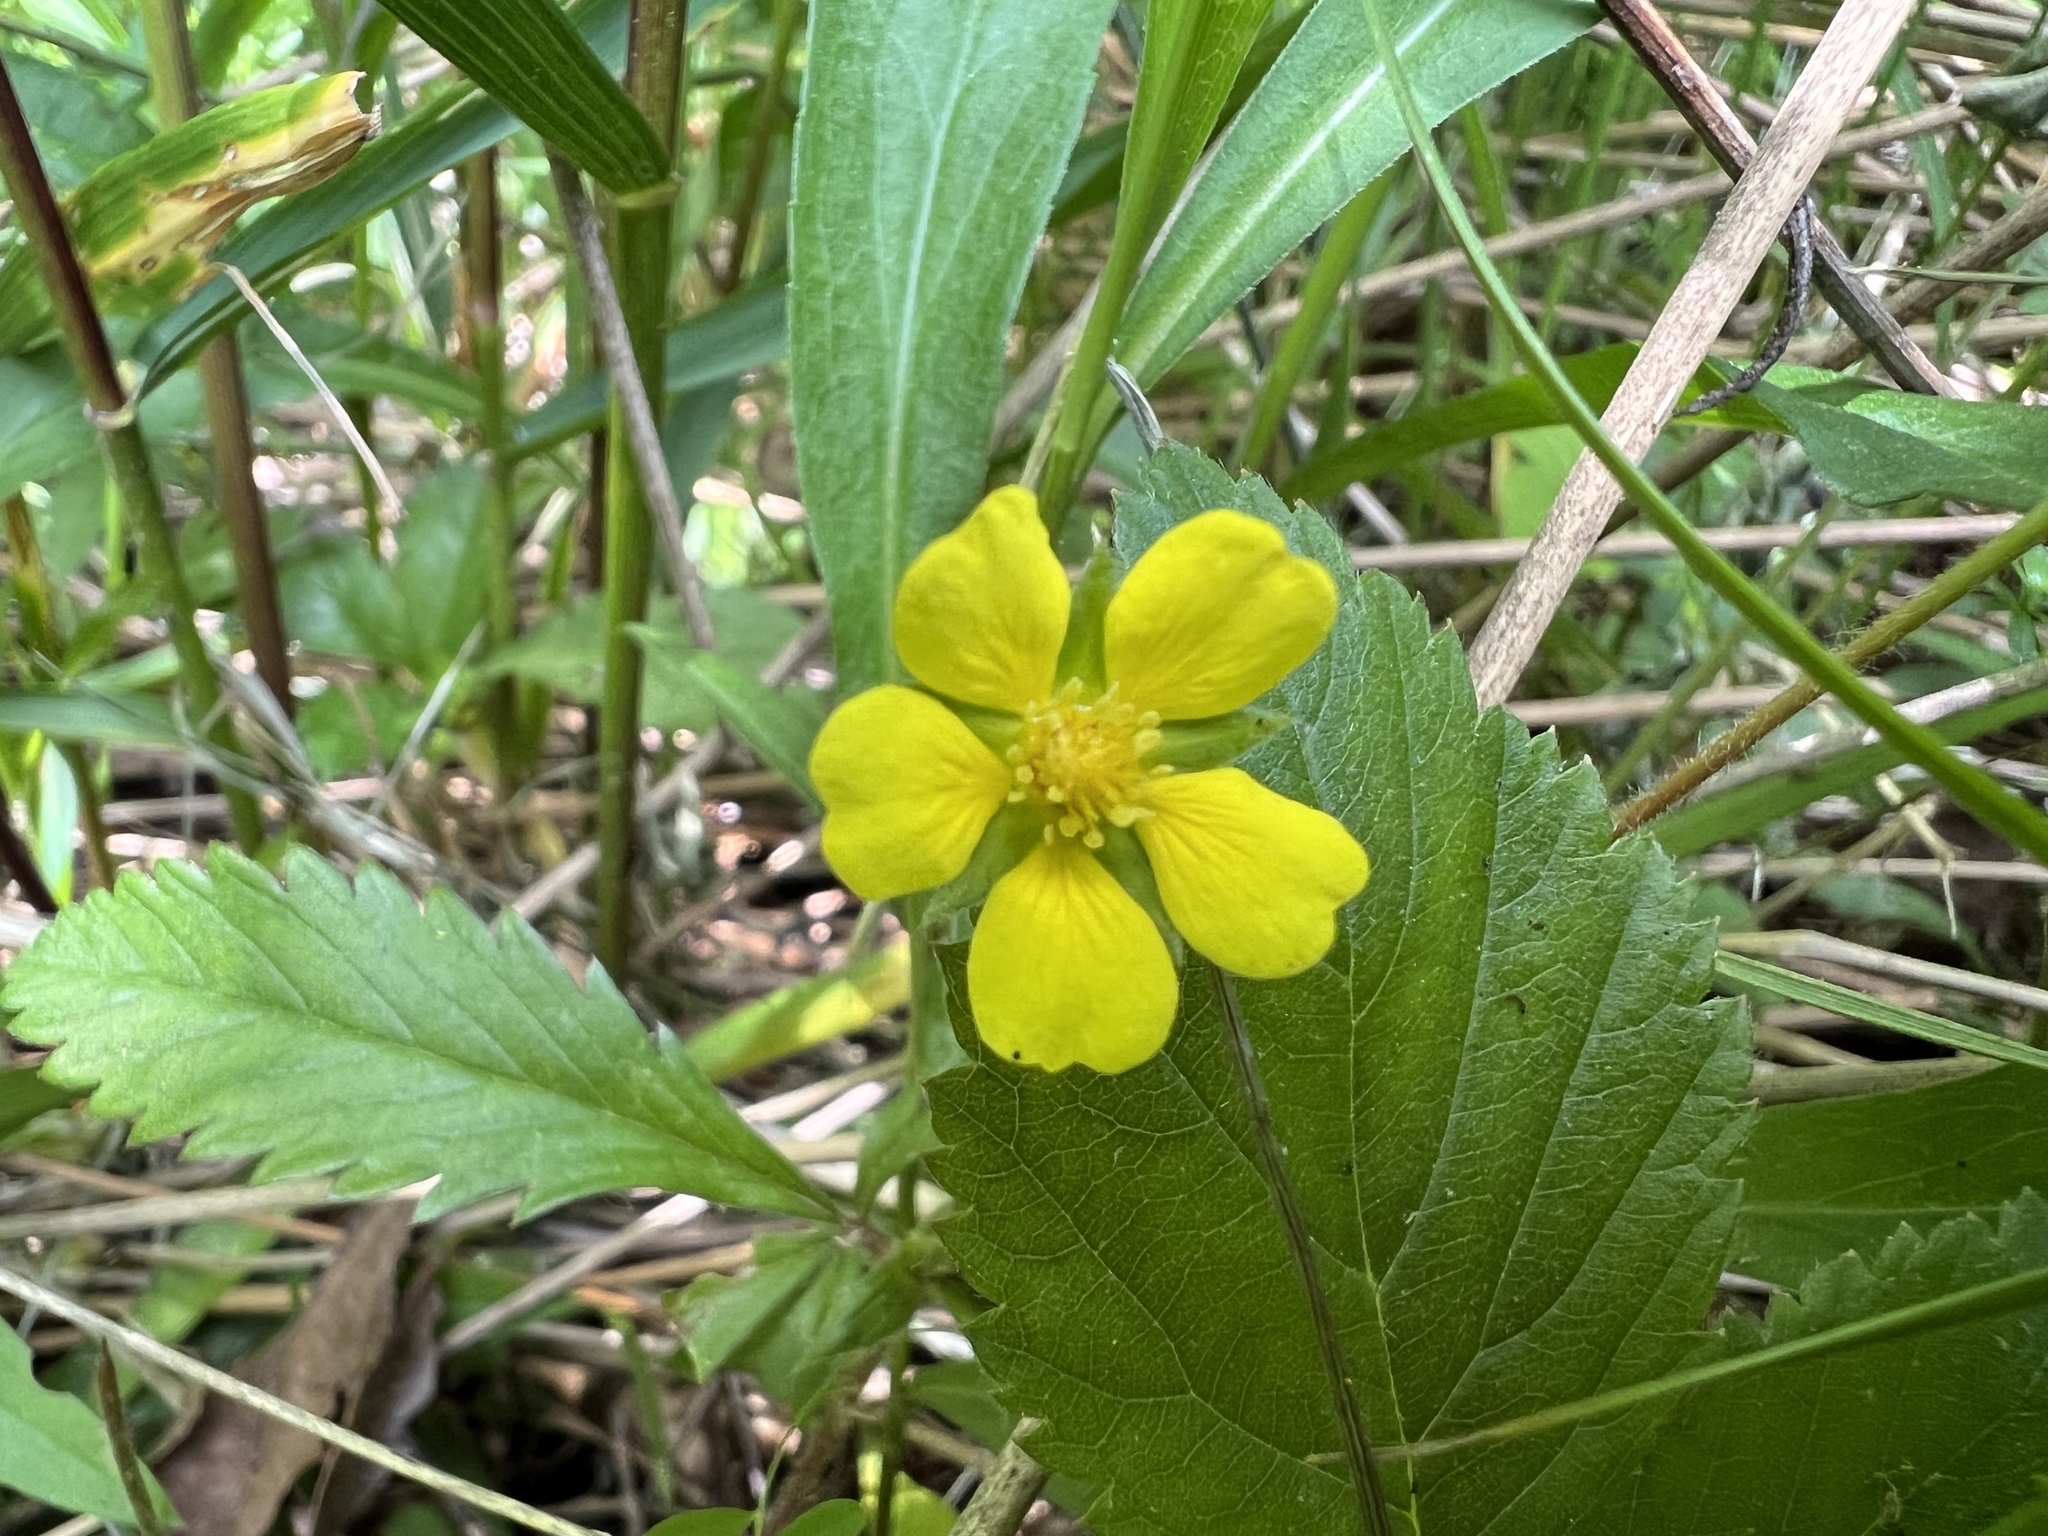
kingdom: Plantae
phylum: Tracheophyta
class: Magnoliopsida
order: Rosales
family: Rosaceae
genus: Potentilla
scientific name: Potentilla simplex
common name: Old field cinquefoil
